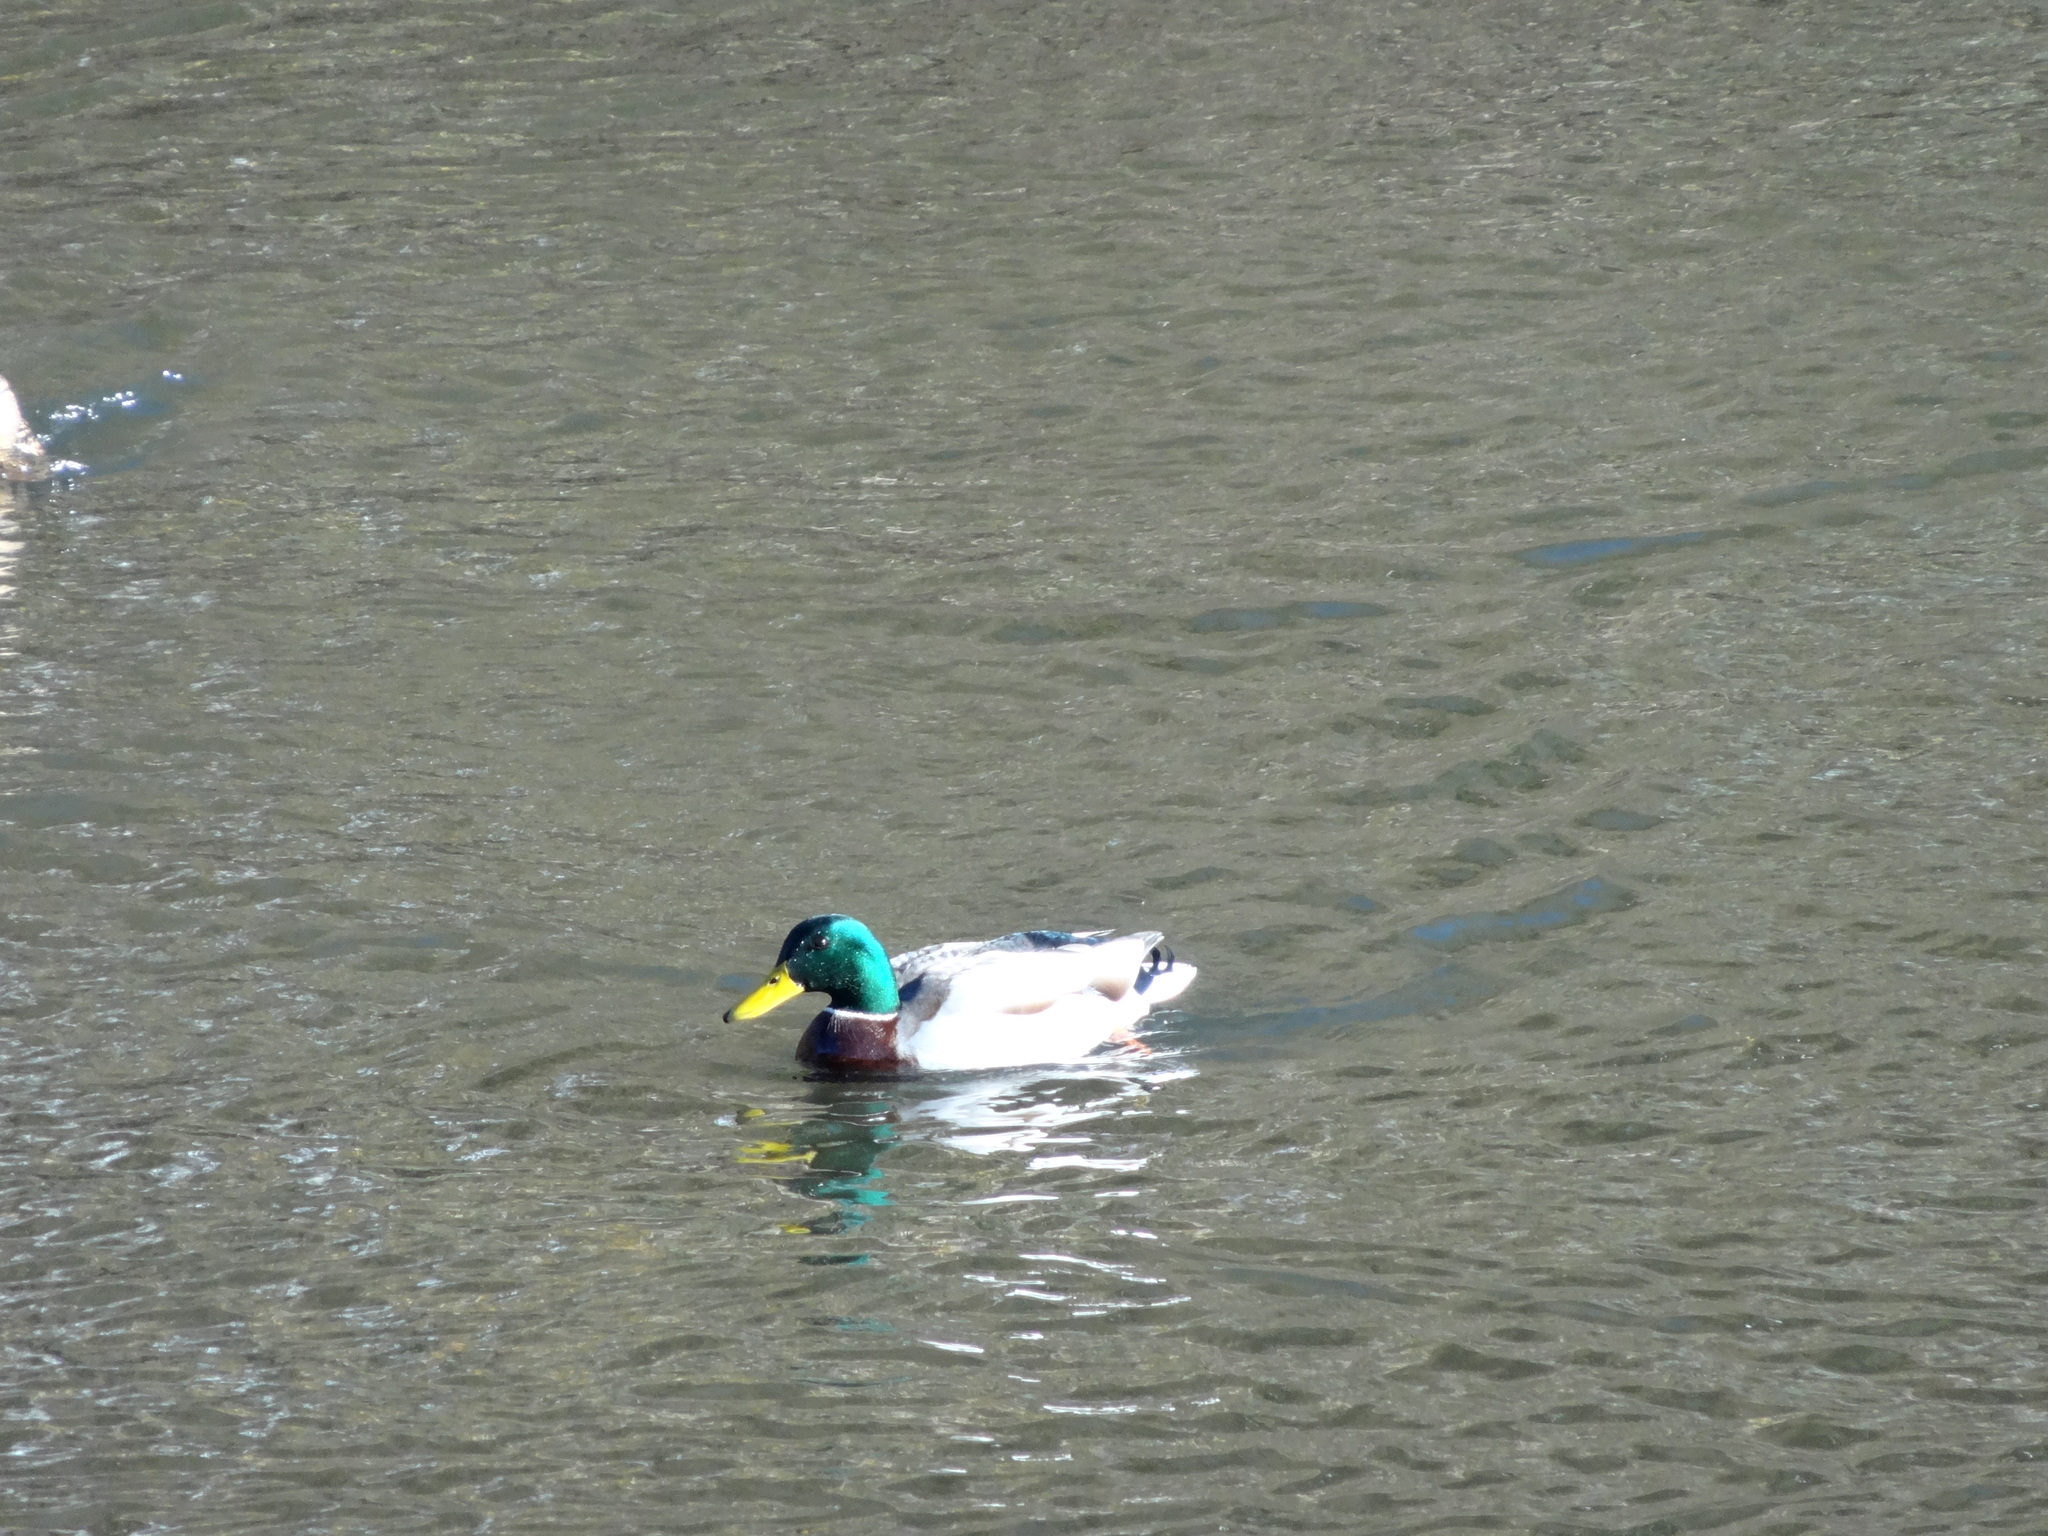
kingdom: Animalia
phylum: Chordata
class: Aves
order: Anseriformes
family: Anatidae
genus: Anas
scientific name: Anas platyrhynchos
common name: Mallard
